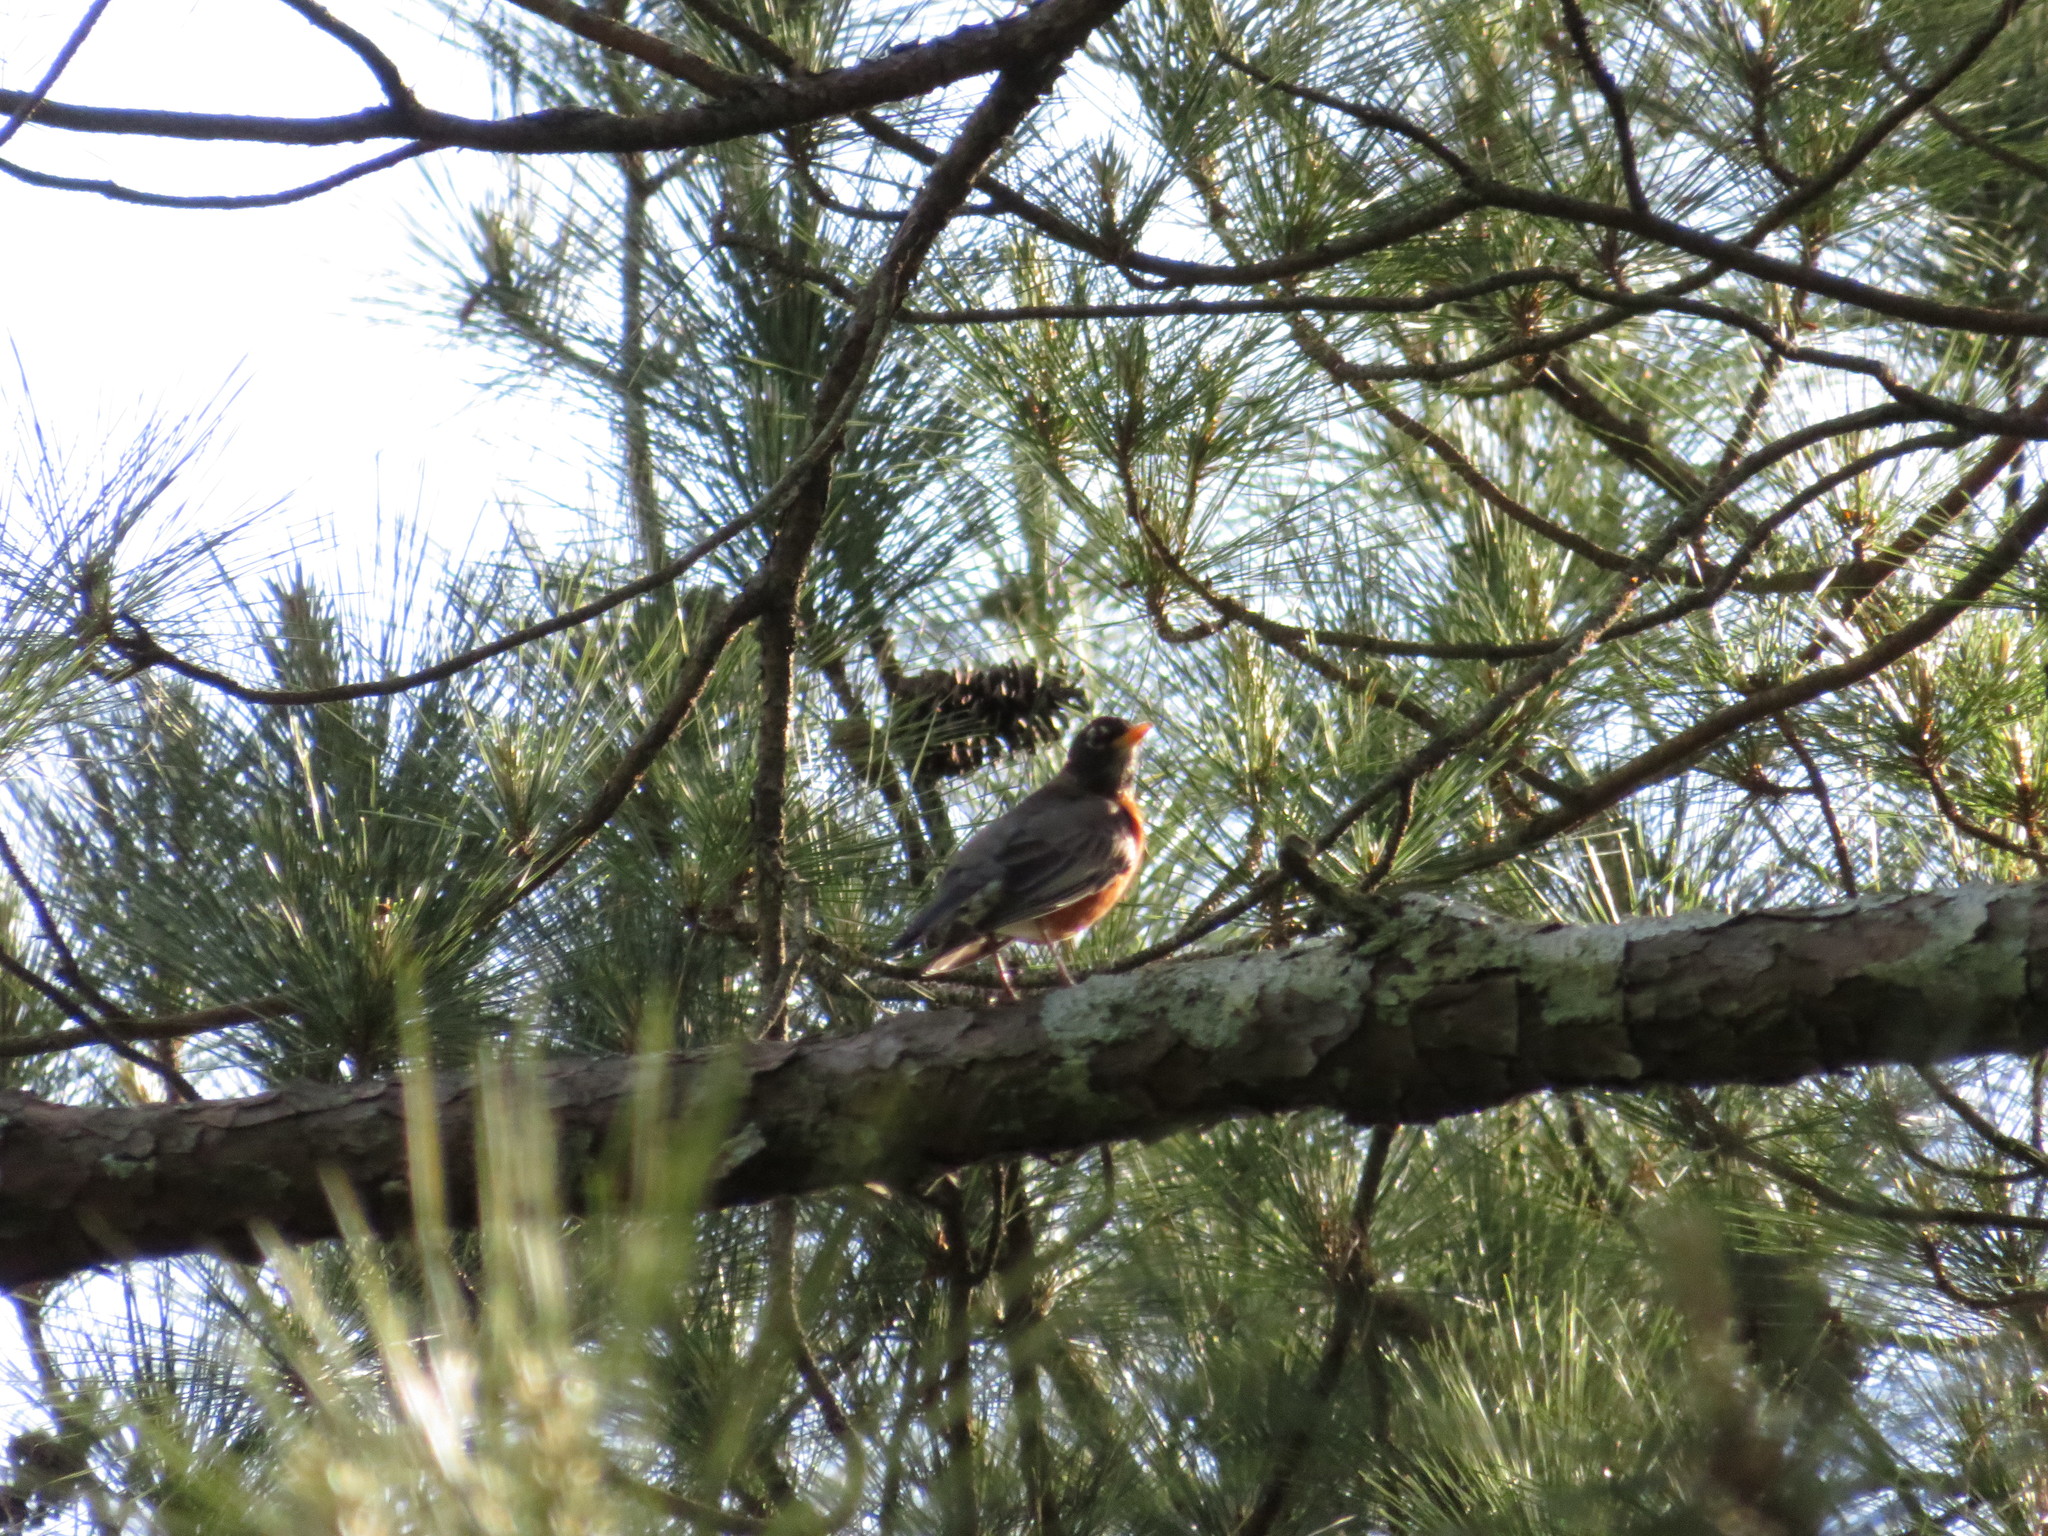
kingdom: Animalia
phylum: Chordata
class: Aves
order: Passeriformes
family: Turdidae
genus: Turdus
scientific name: Turdus migratorius
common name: American robin
